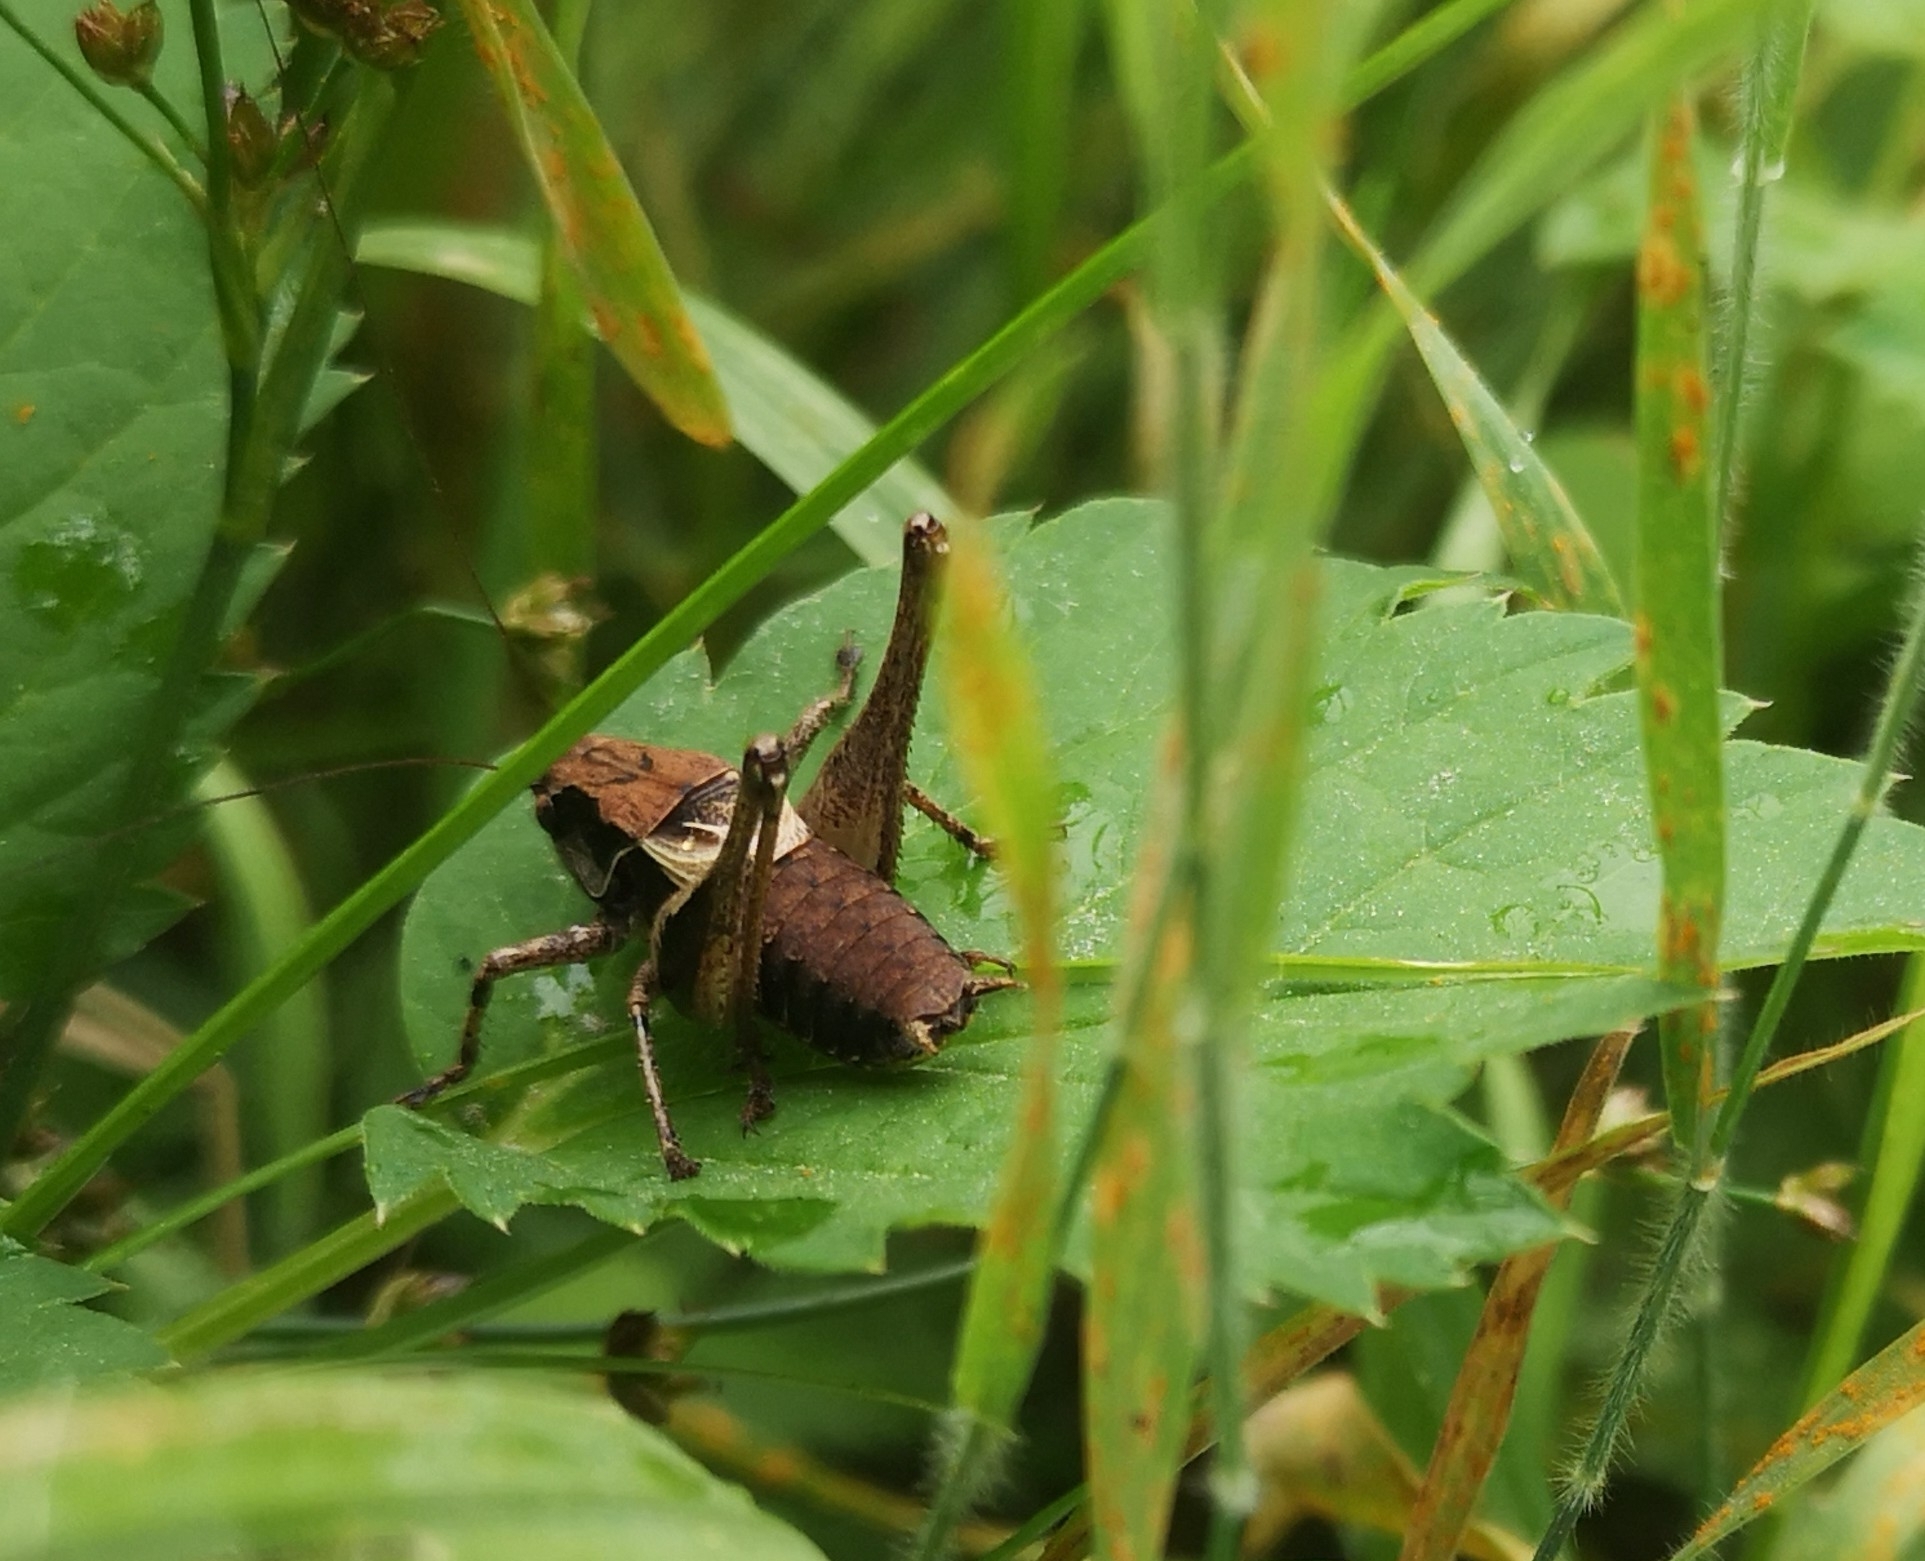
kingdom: Animalia
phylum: Arthropoda
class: Insecta
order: Orthoptera
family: Tettigoniidae
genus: Pholidoptera
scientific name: Pholidoptera griseoaptera
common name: Dark bush-cricket
